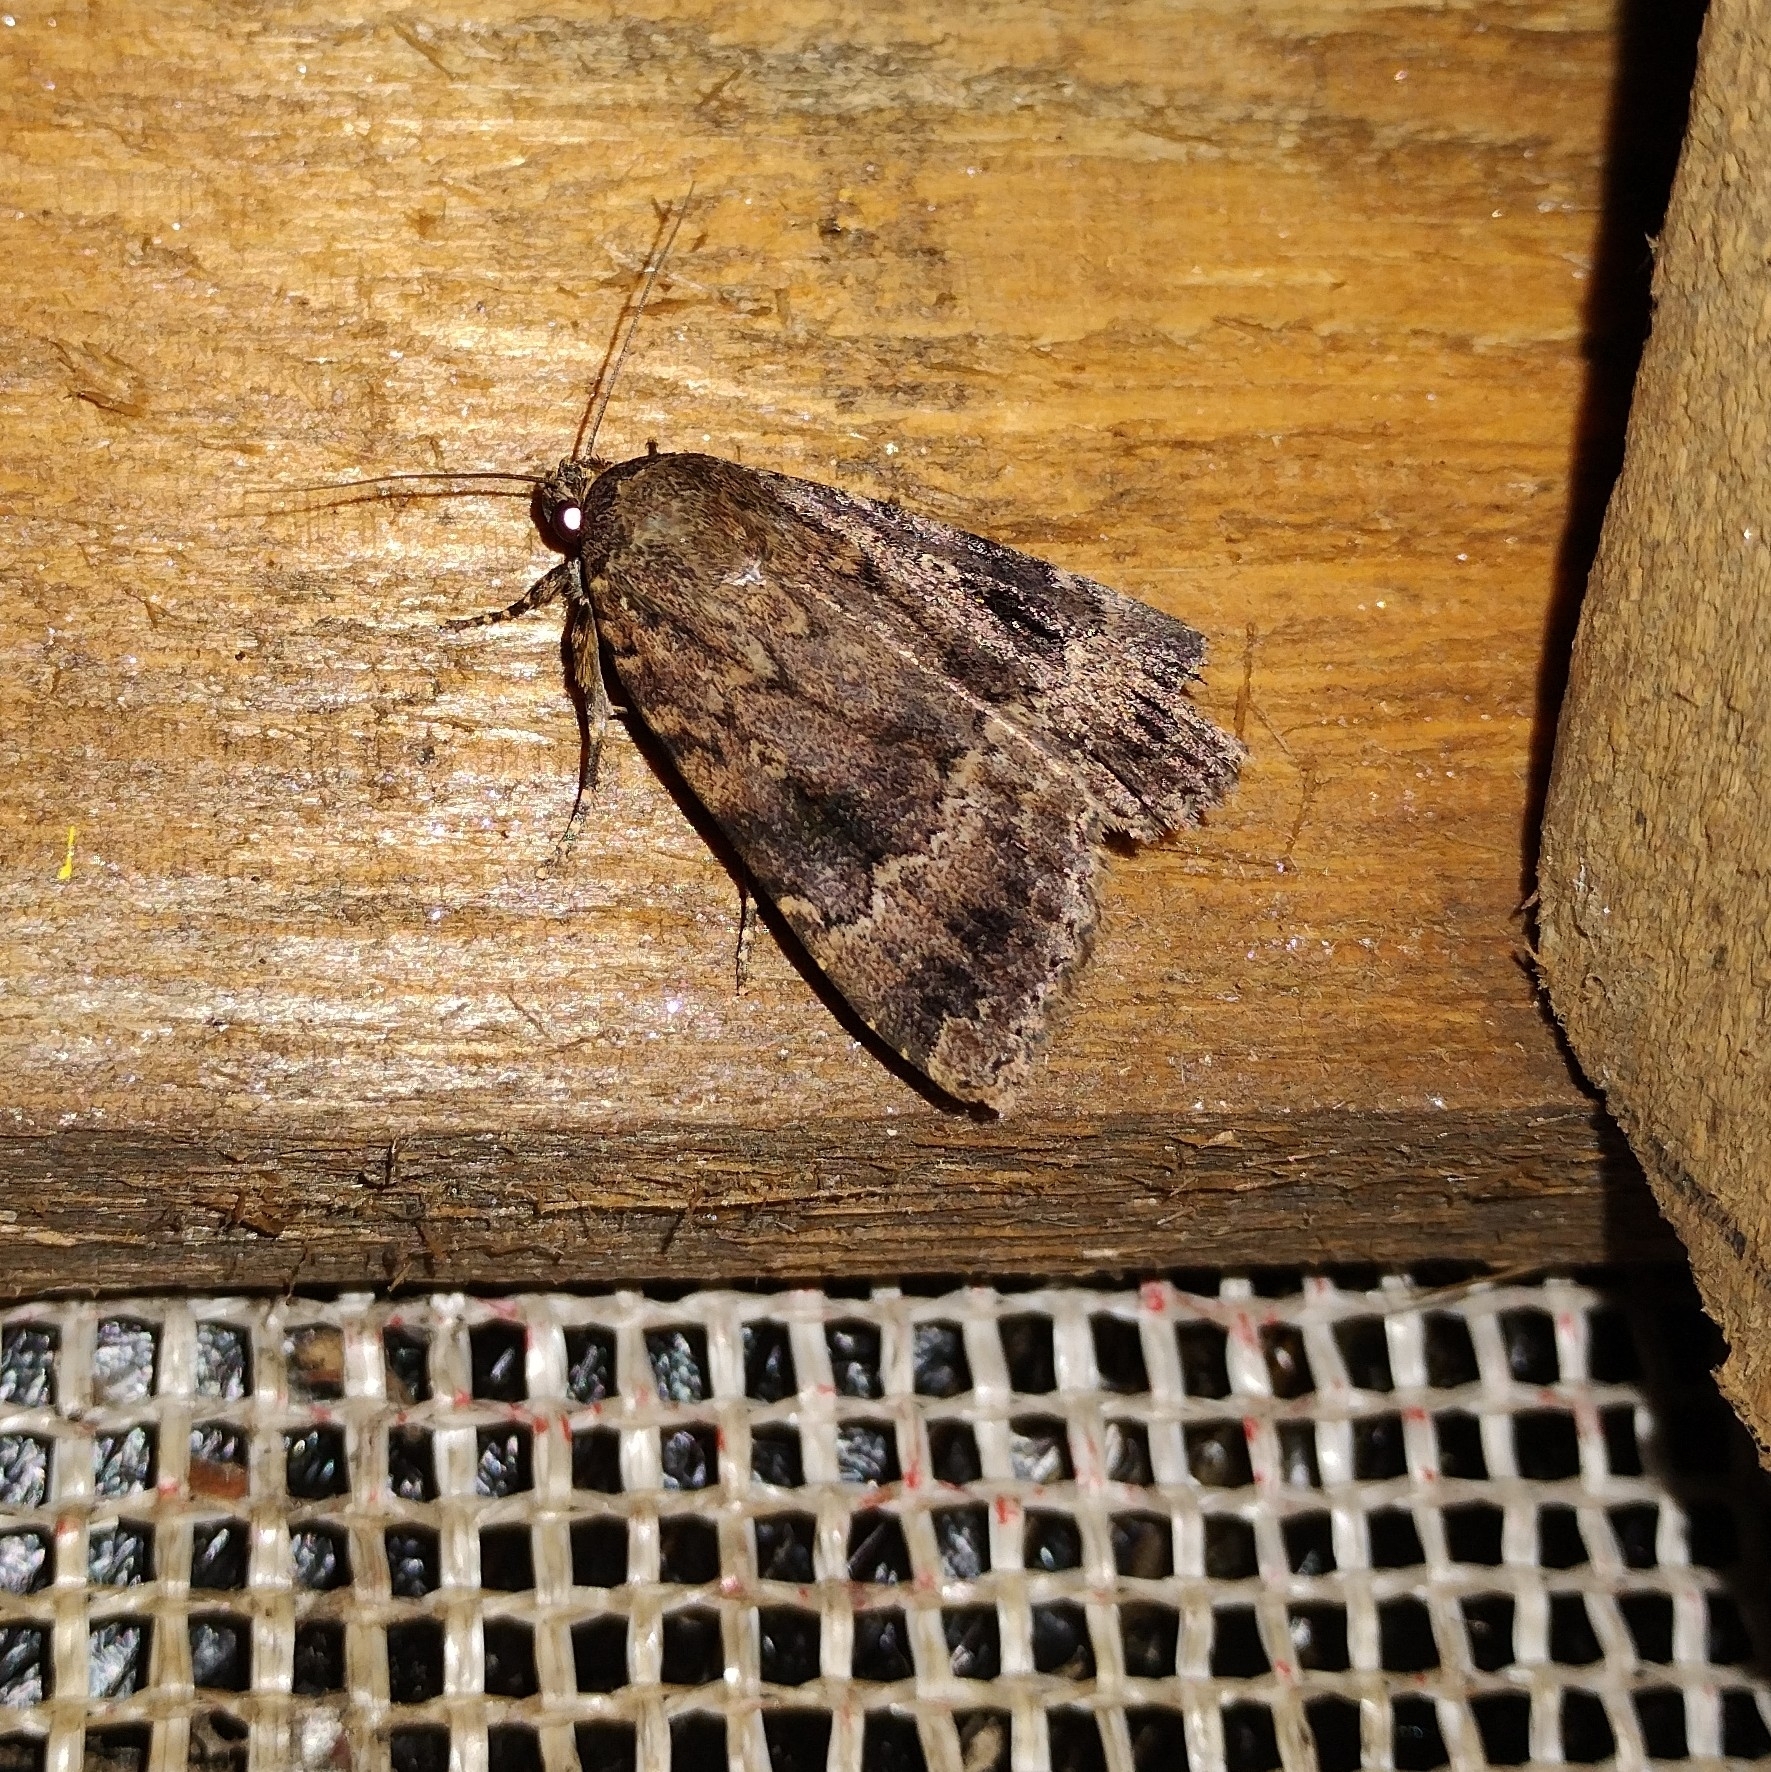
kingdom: Animalia
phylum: Arthropoda
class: Insecta
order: Lepidoptera
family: Noctuidae
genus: Amphipyra
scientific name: Amphipyra pyramidea
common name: Copper underwing
